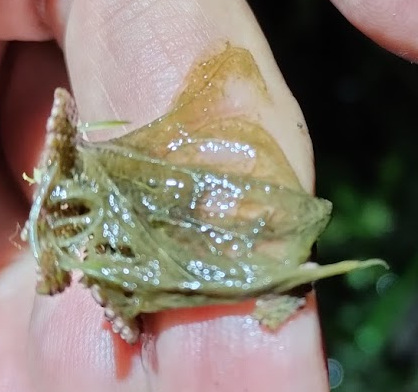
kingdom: Plantae
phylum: Tracheophyta
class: Polypodiopsida
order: Salviniales
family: Salviniaceae
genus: Azolla
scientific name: Azolla pinnata
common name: Ferny azolla
